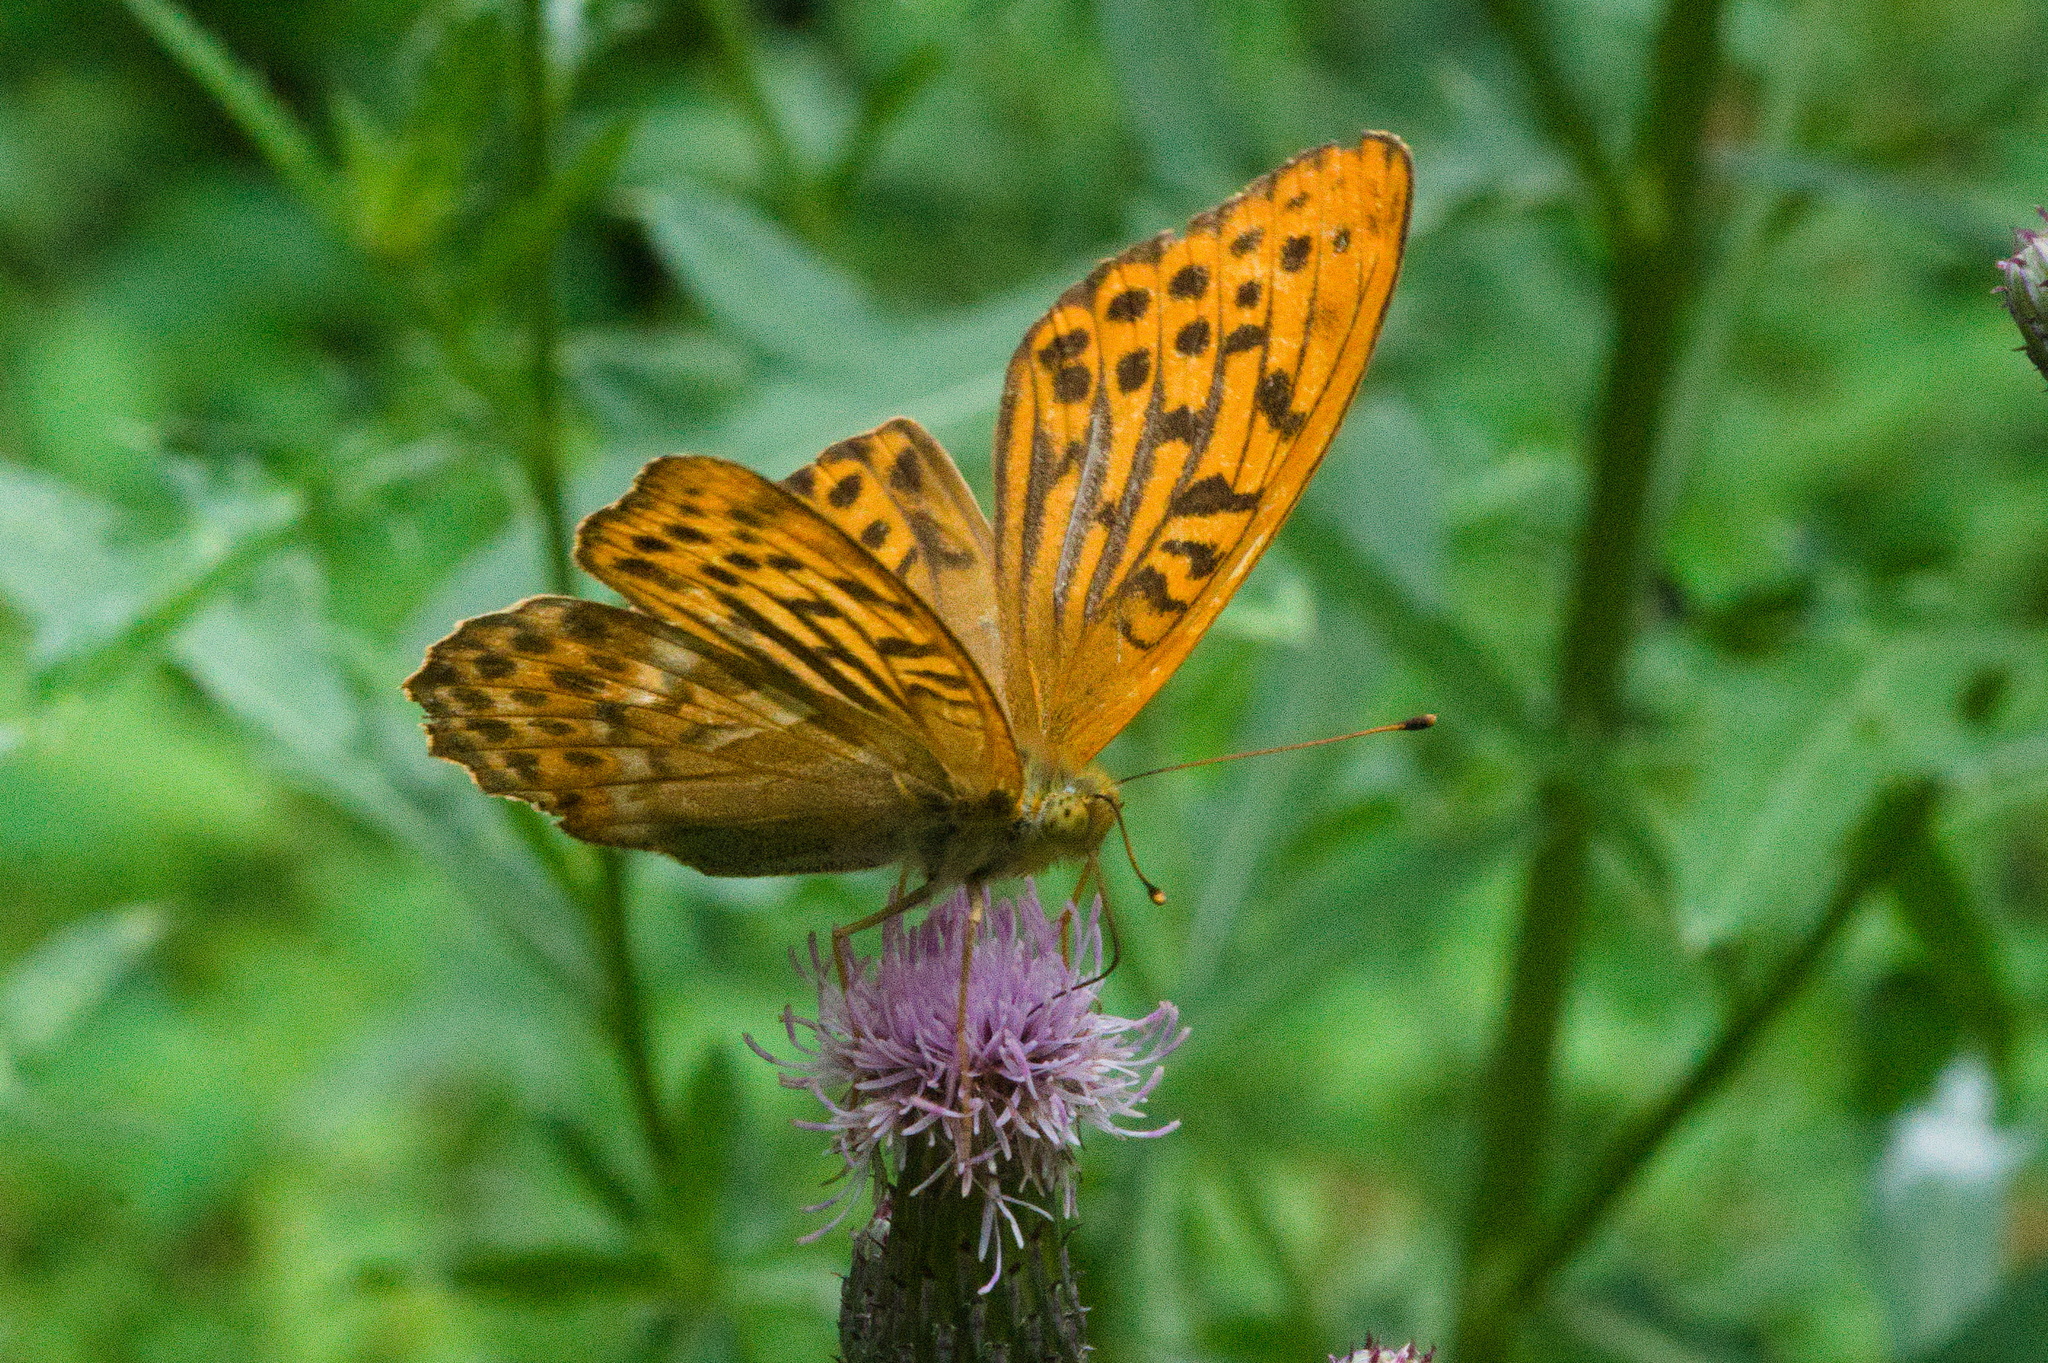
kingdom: Animalia
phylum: Arthropoda
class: Insecta
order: Lepidoptera
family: Nymphalidae
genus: Argynnis
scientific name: Argynnis paphia
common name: Silver-washed fritillary
